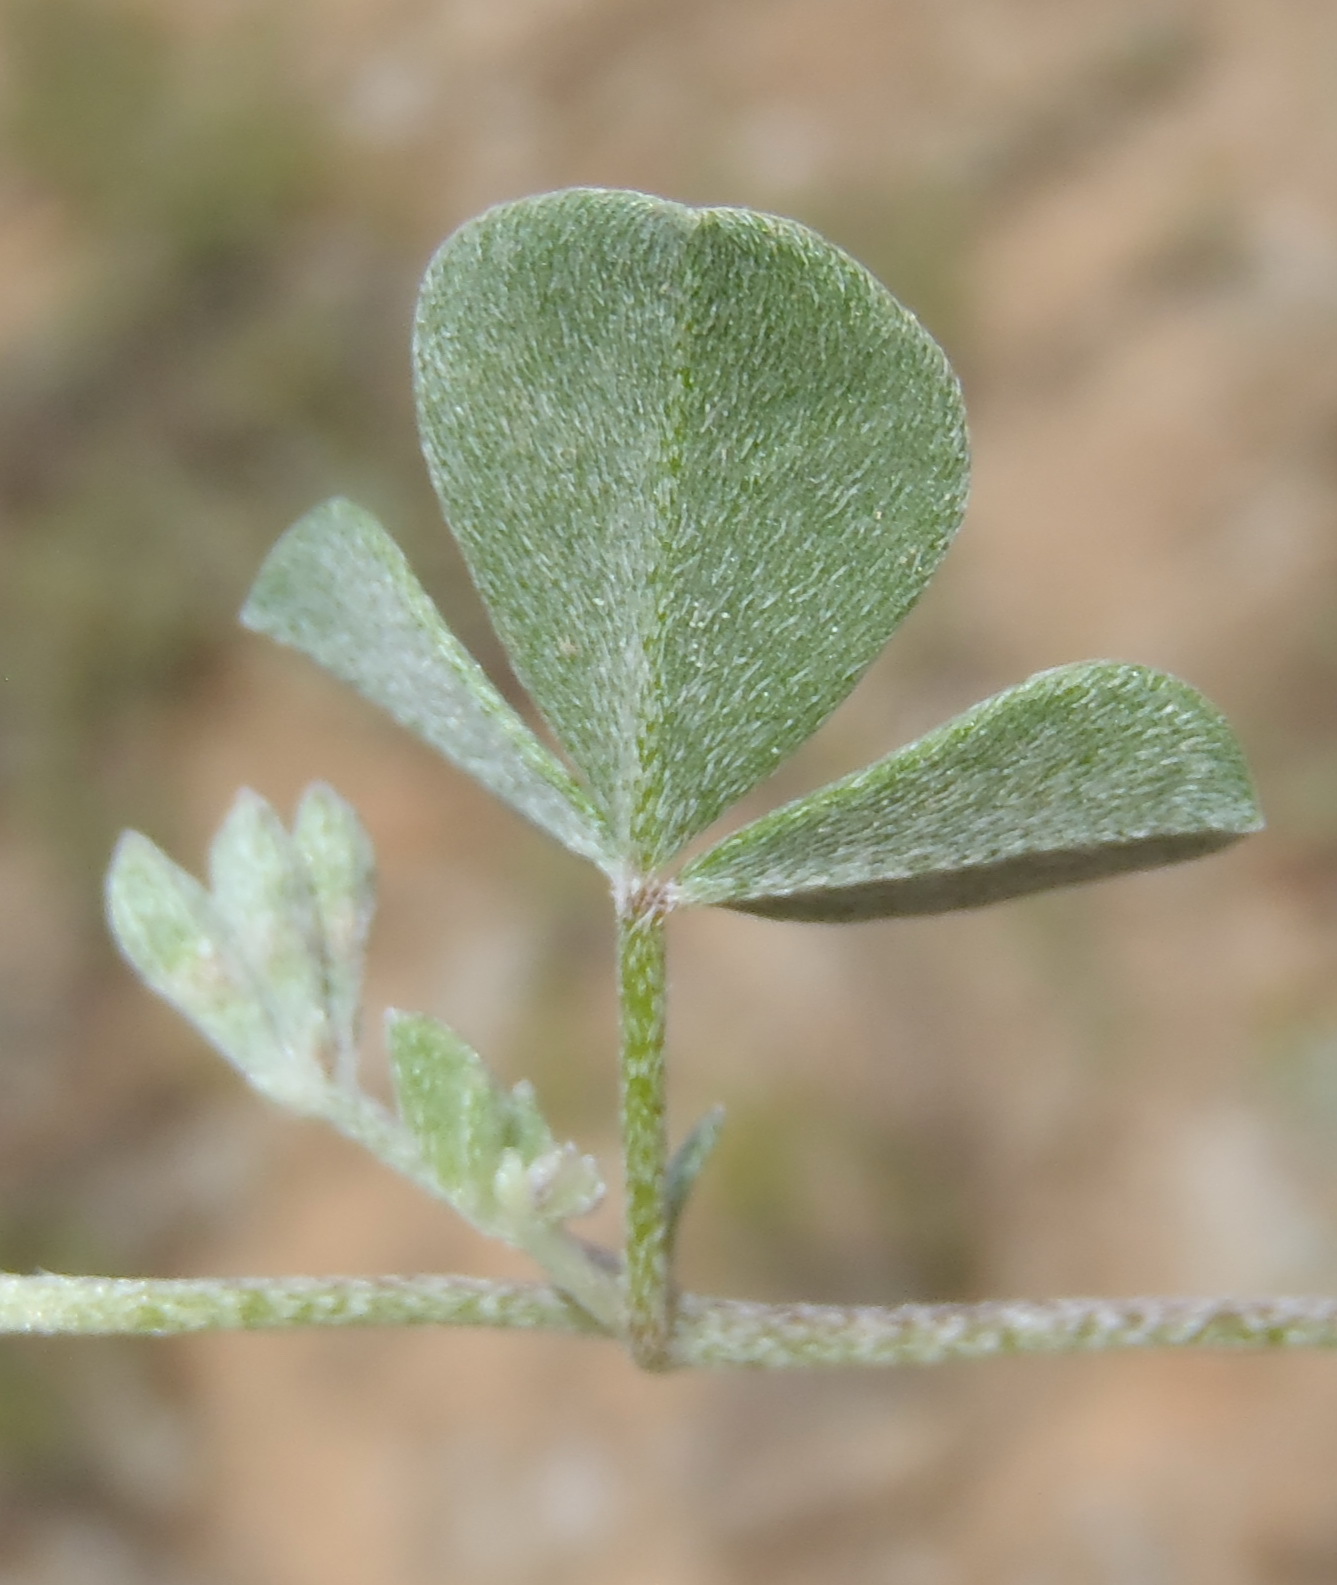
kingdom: Plantae
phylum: Tracheophyta
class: Magnoliopsida
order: Fabales
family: Fabaceae
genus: Lotononis
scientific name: Lotononis pumila
